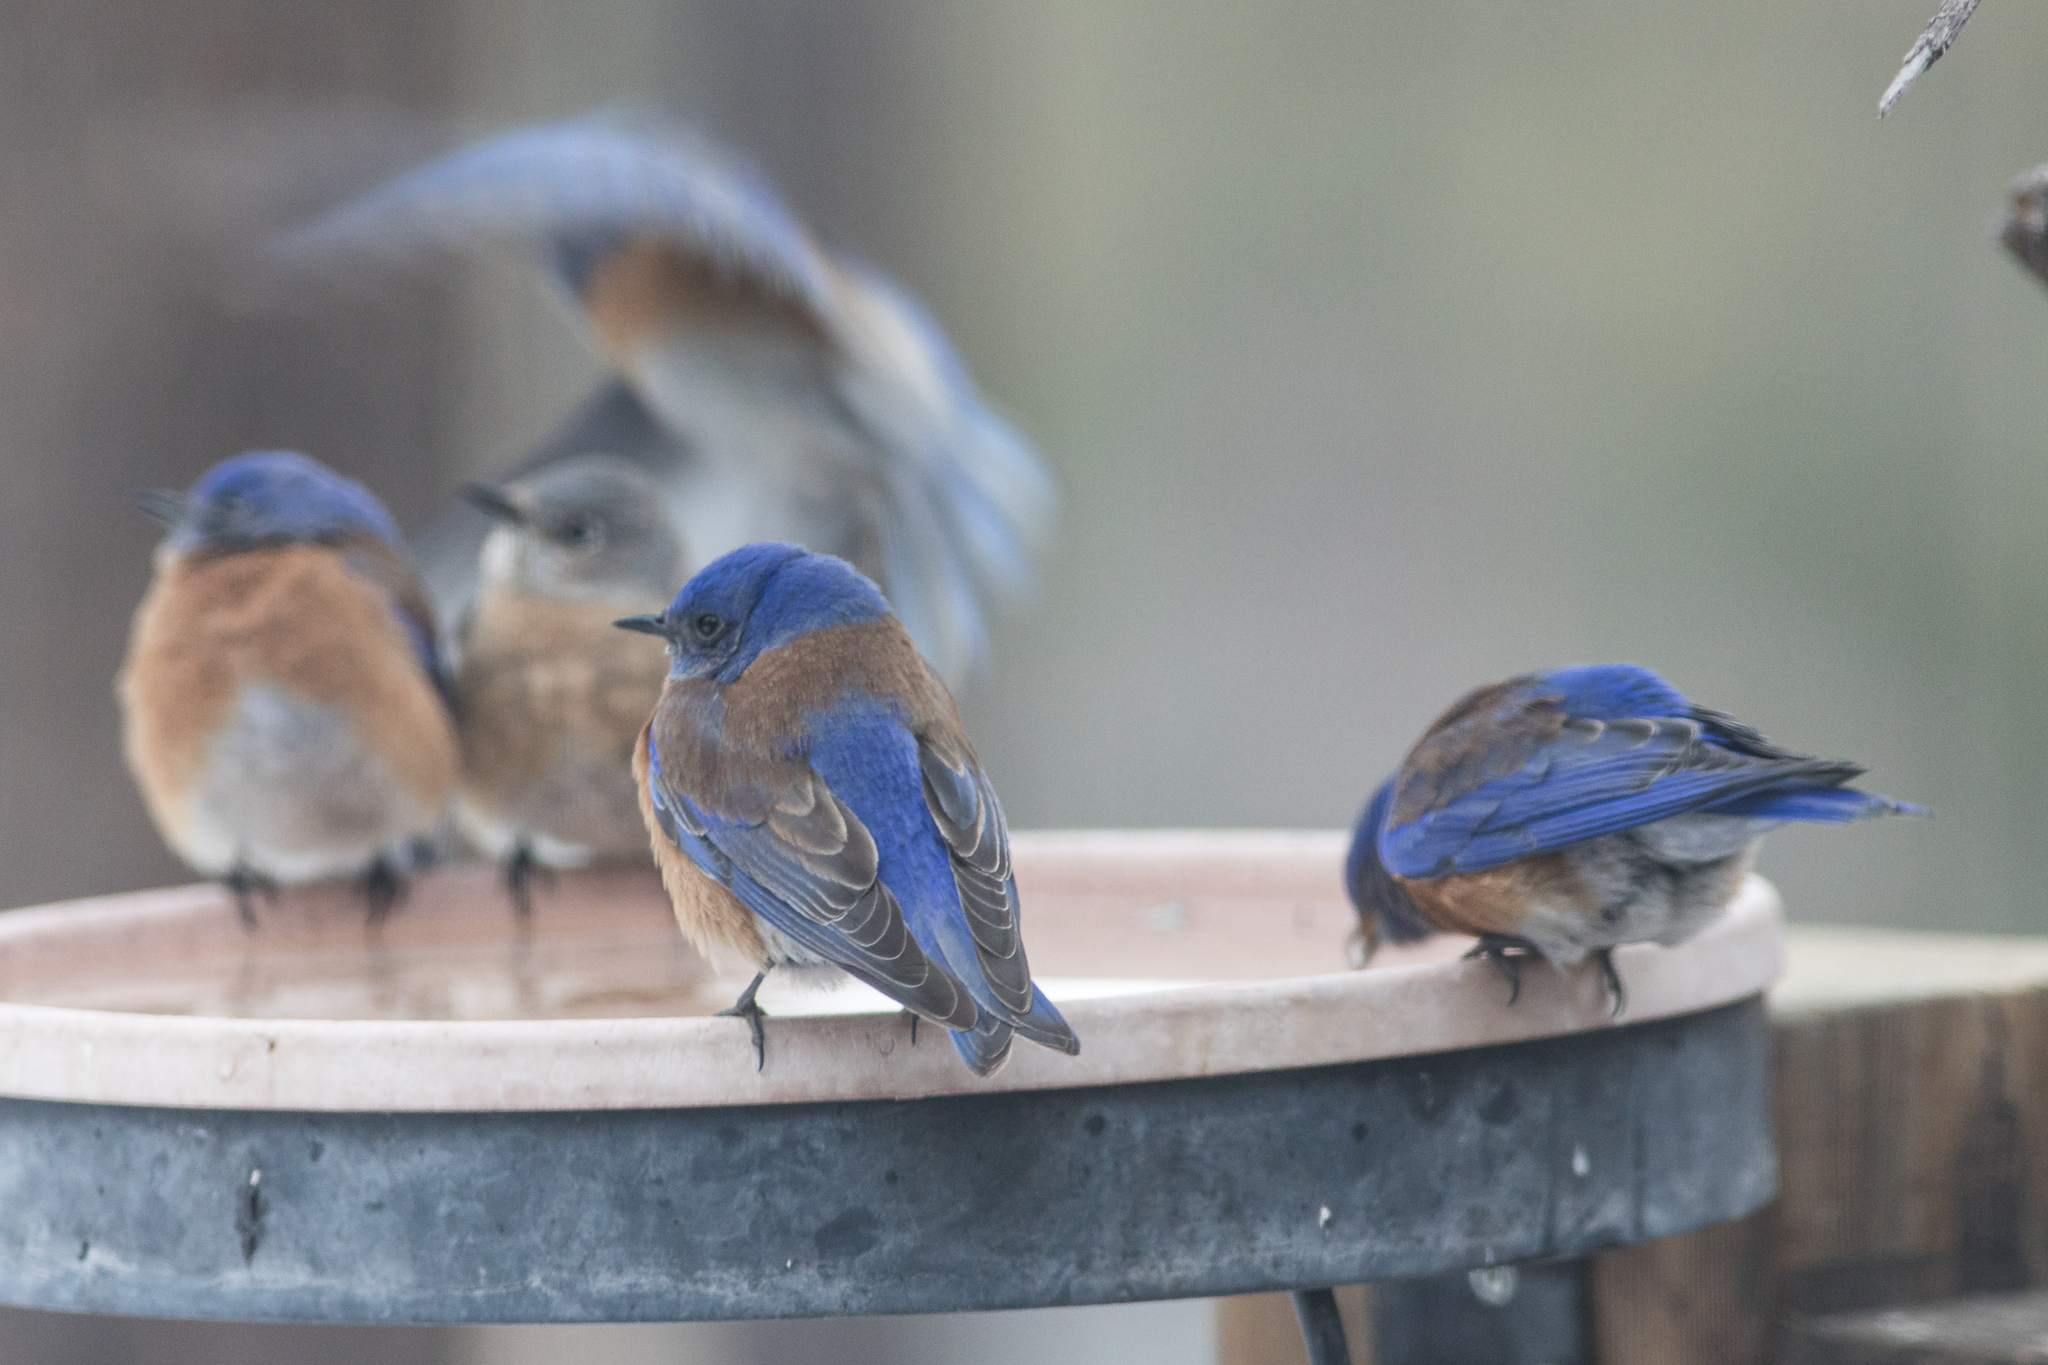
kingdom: Animalia
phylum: Chordata
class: Aves
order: Passeriformes
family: Turdidae
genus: Sialia
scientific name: Sialia mexicana
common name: Western bluebird
